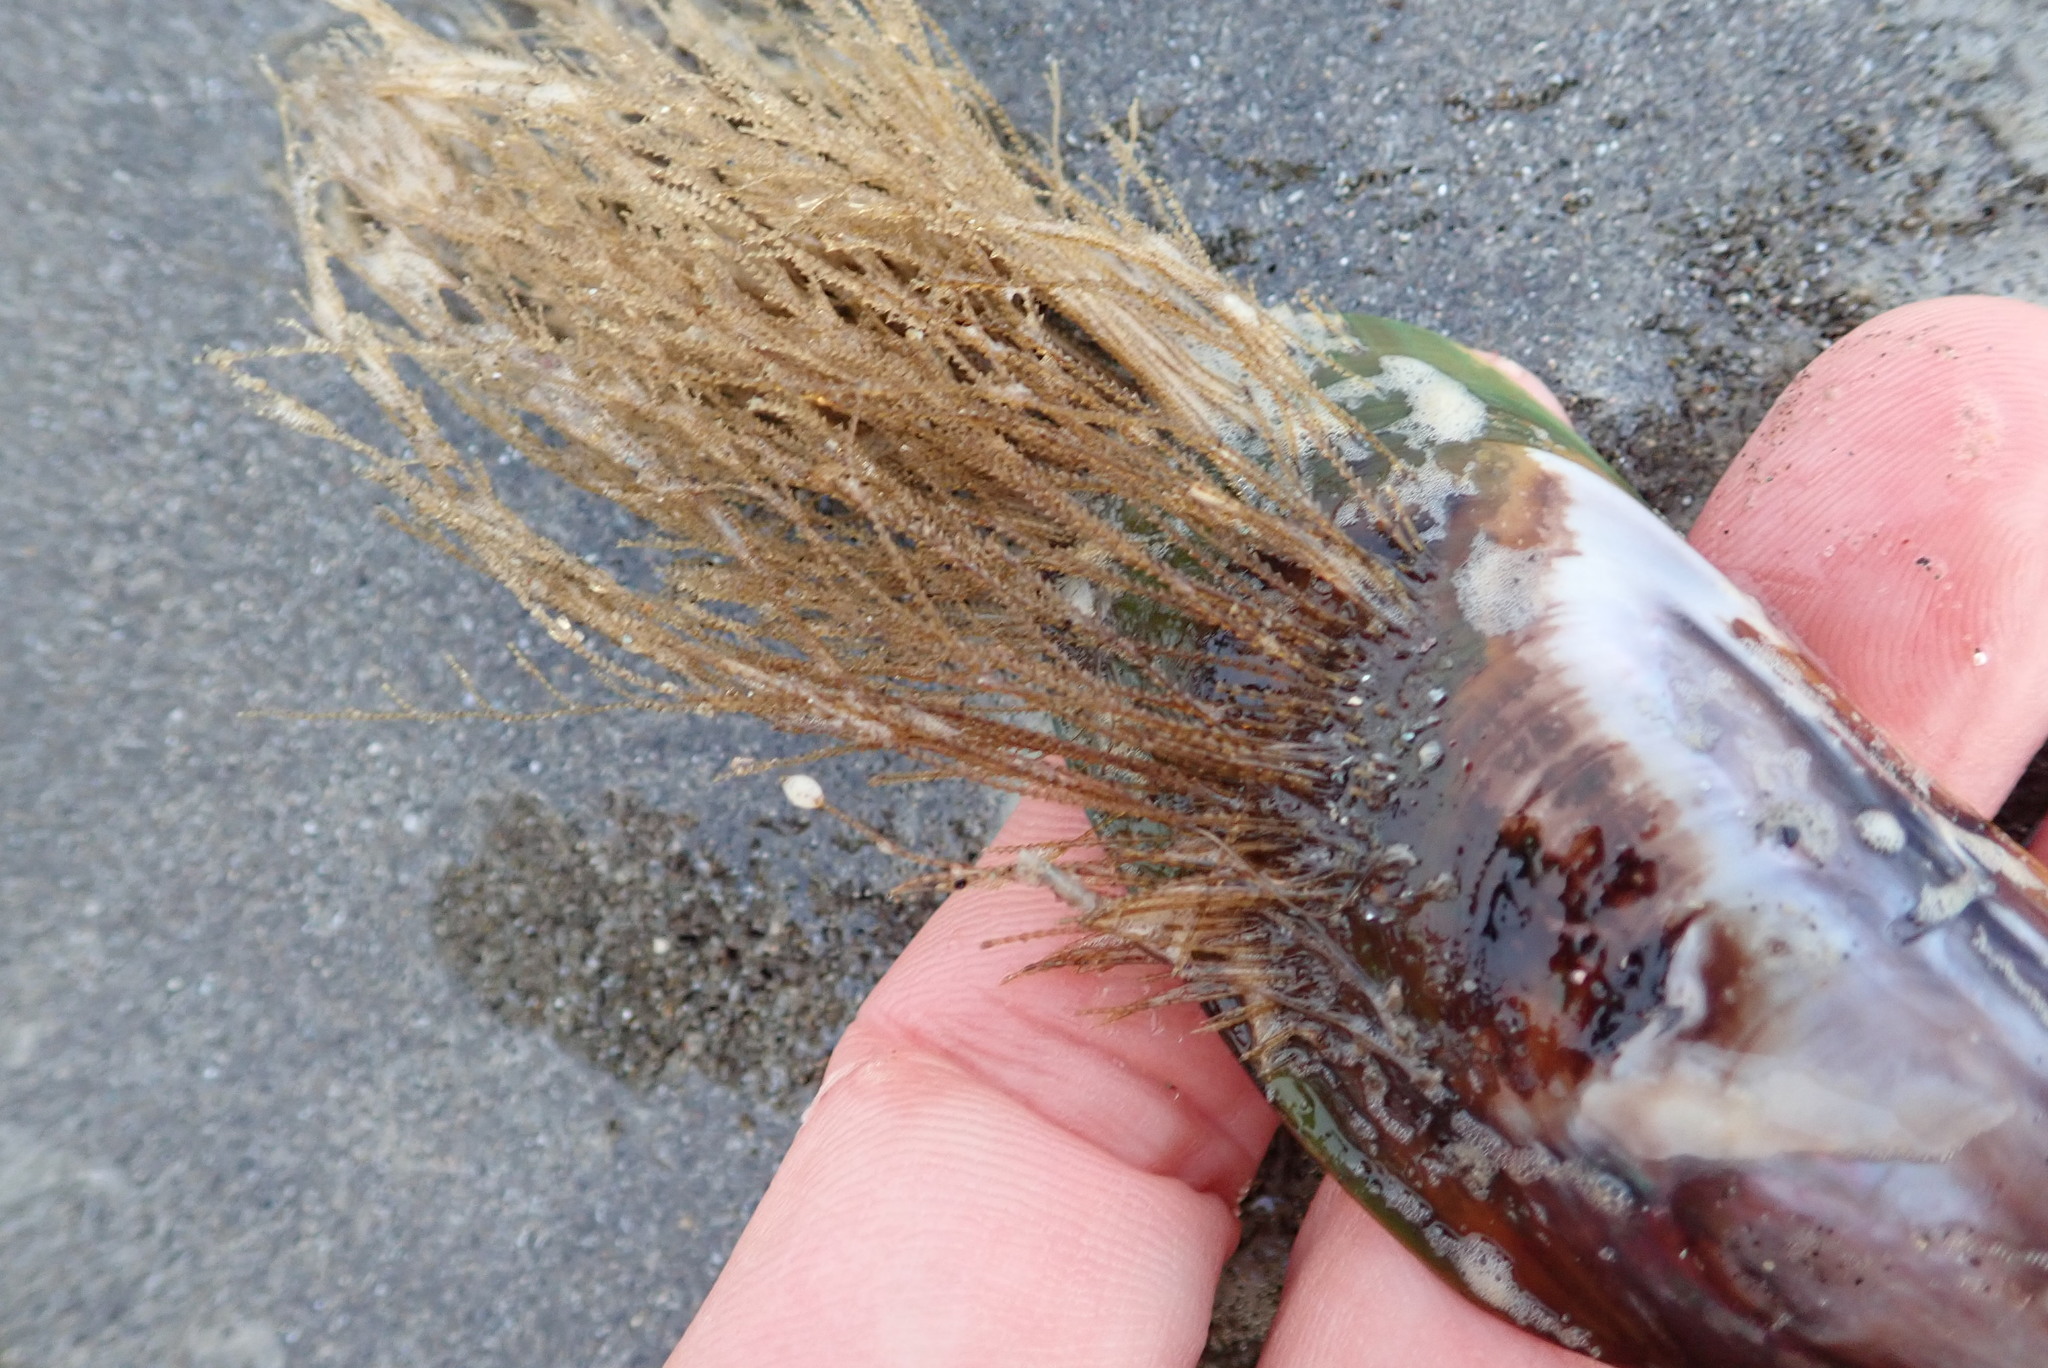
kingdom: Animalia
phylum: Cnidaria
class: Hydrozoa
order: Leptothecata
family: Sertulariidae
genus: Amphisbetia
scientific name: Amphisbetia bispinosa
